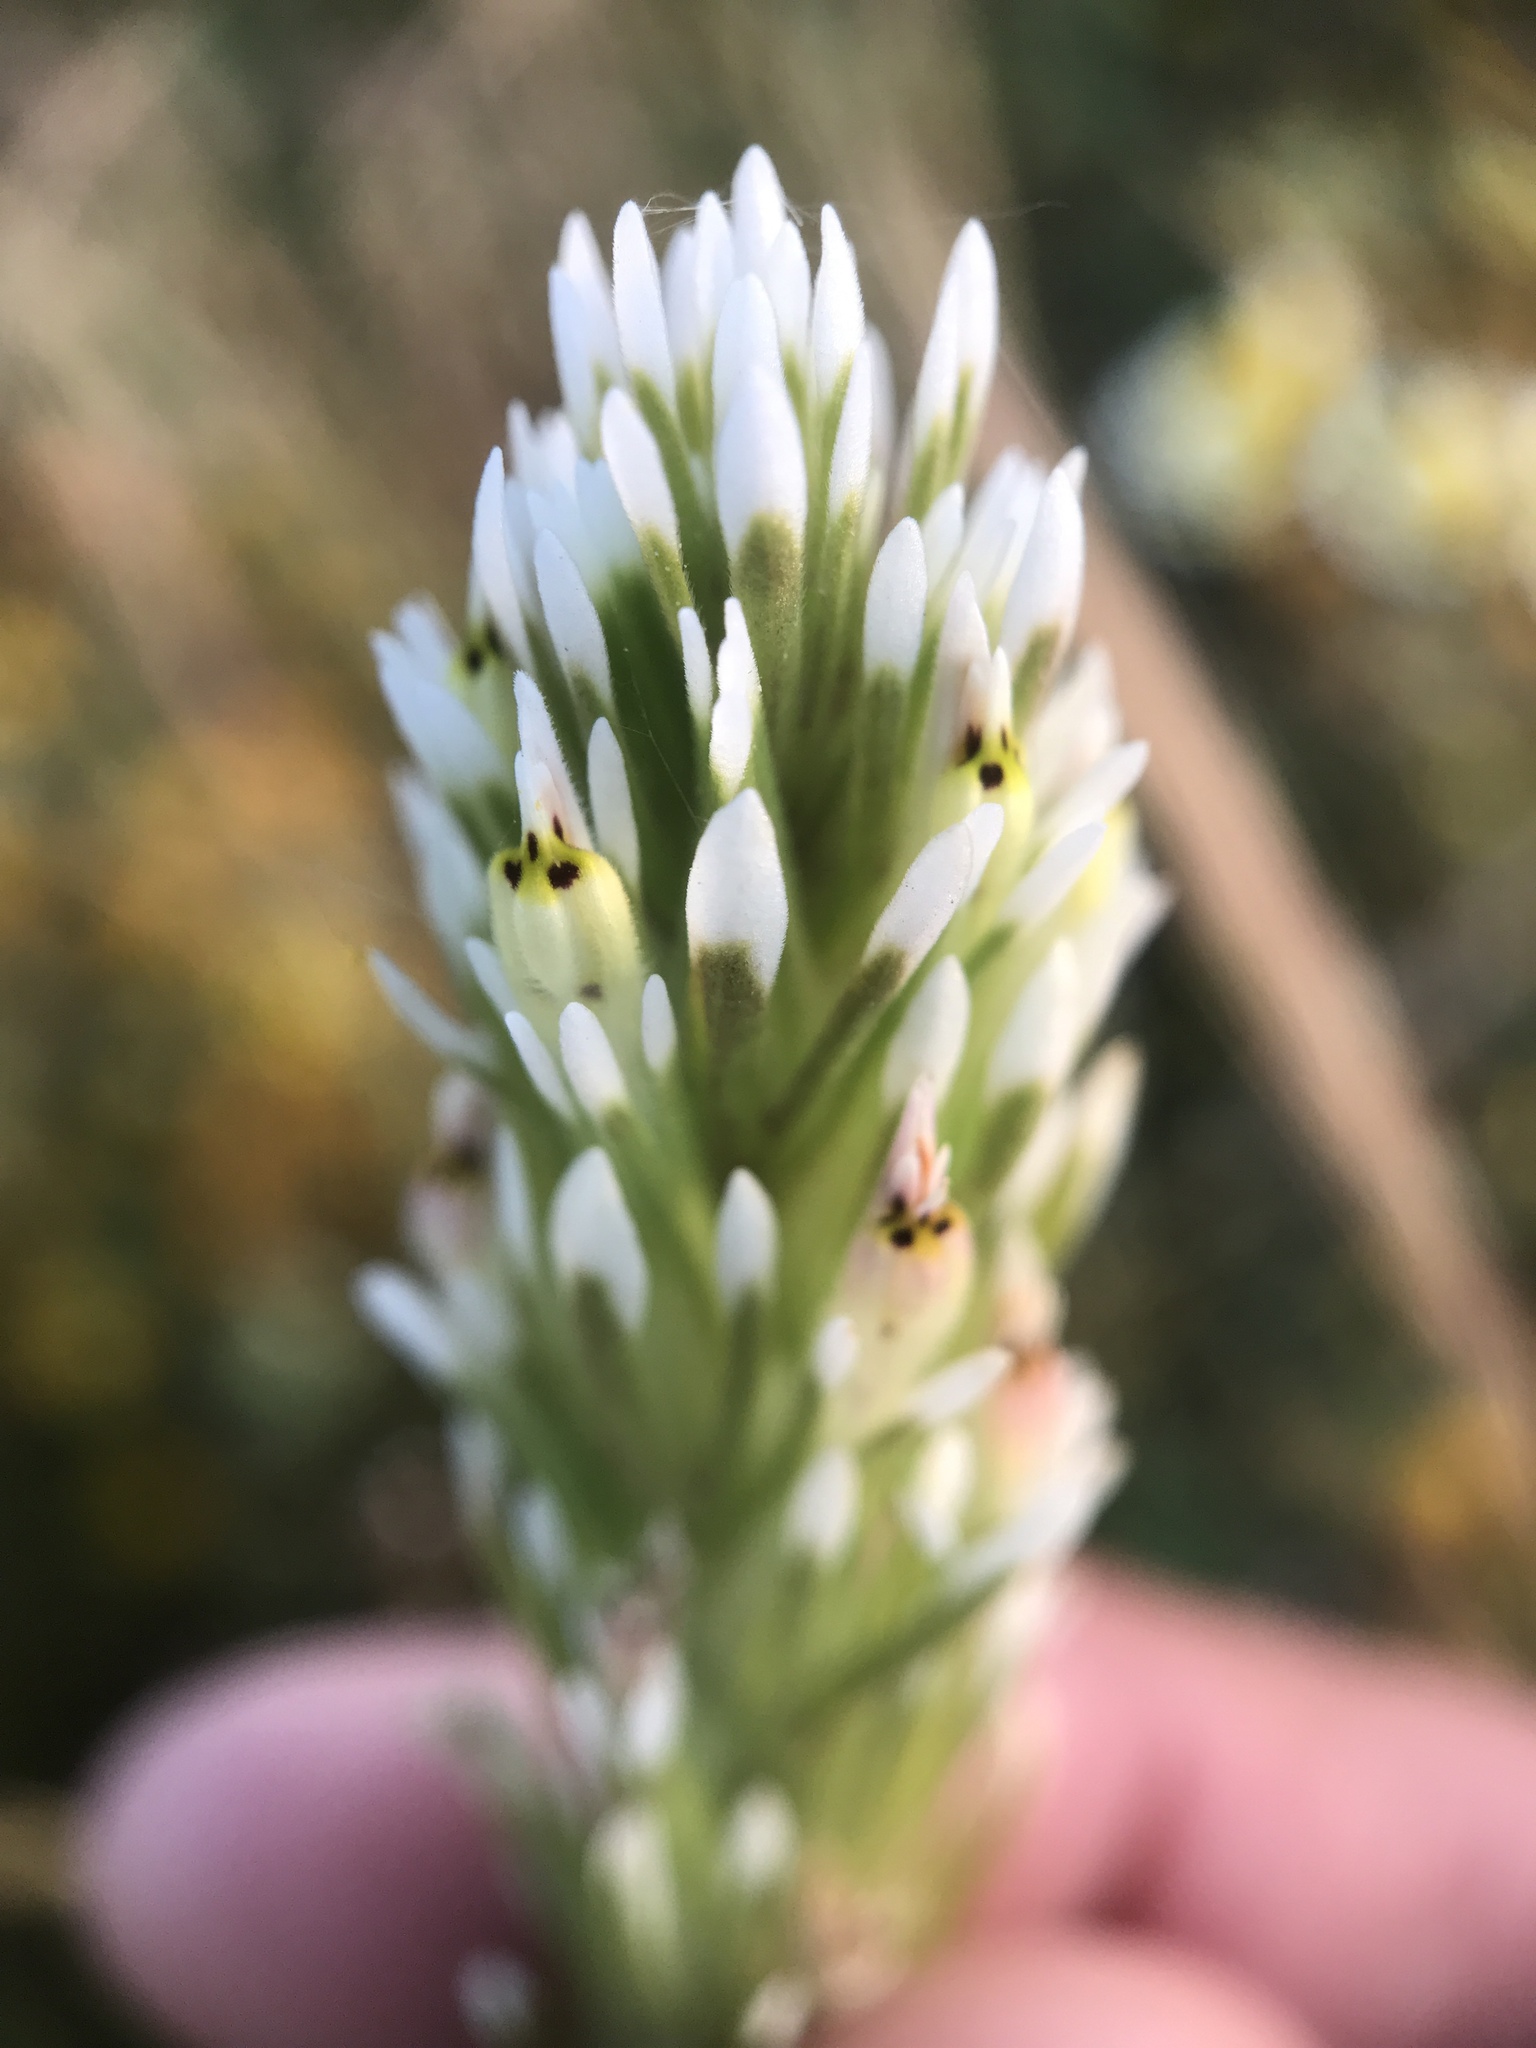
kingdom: Plantae
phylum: Tracheophyta
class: Magnoliopsida
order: Lamiales
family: Orobanchaceae
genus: Castilleja
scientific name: Castilleja attenuata
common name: Valley tassels
